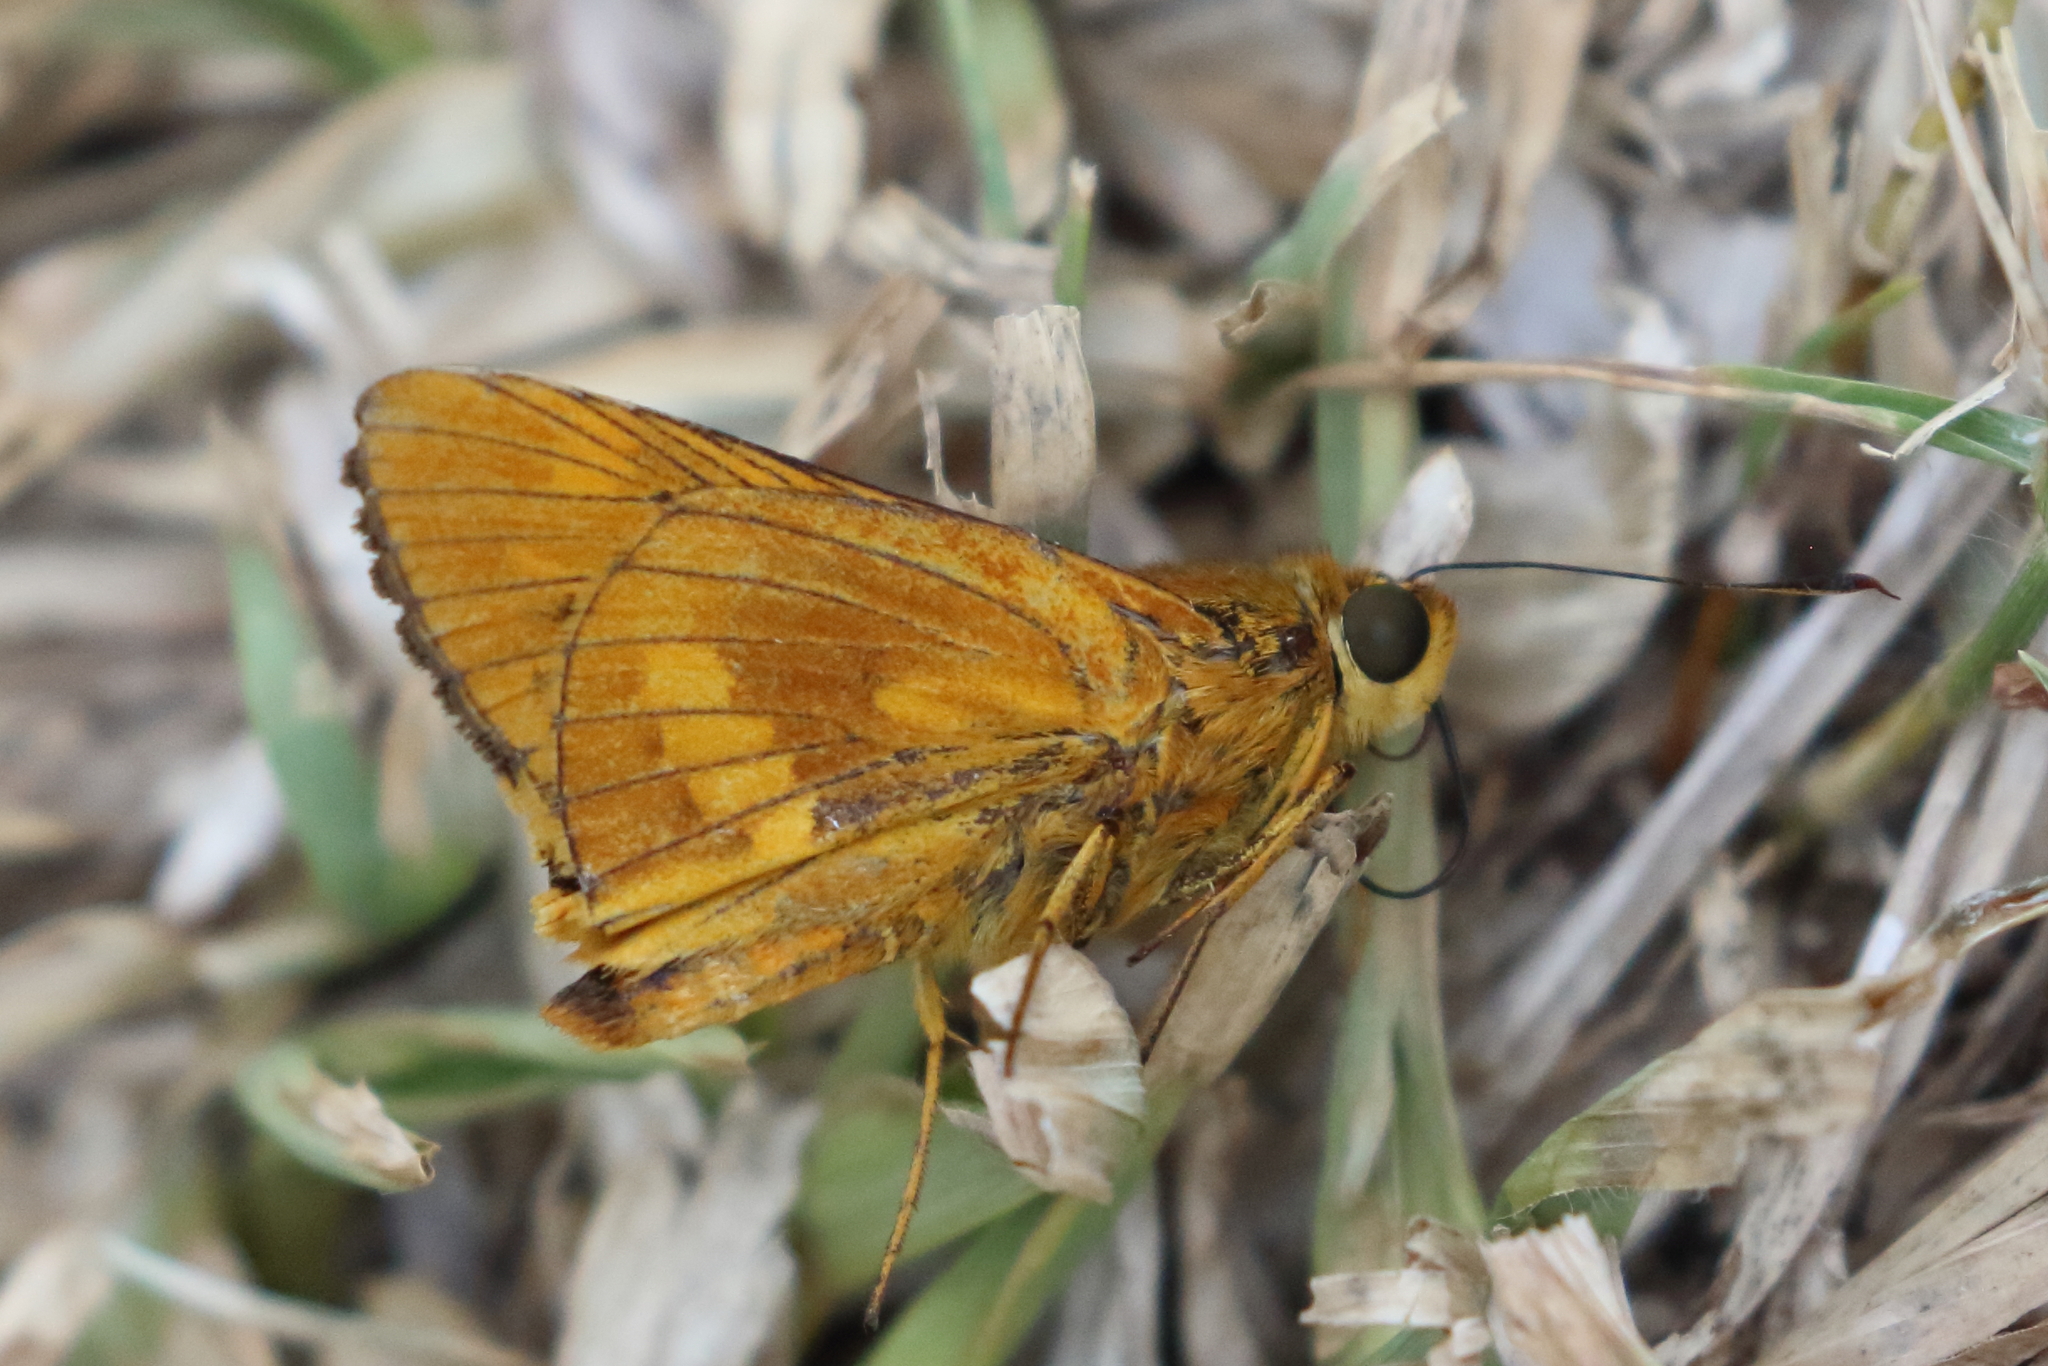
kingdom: Animalia
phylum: Arthropoda
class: Insecta
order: Lepidoptera
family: Hesperiidae
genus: Cephrenes
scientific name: Cephrenes augiades
